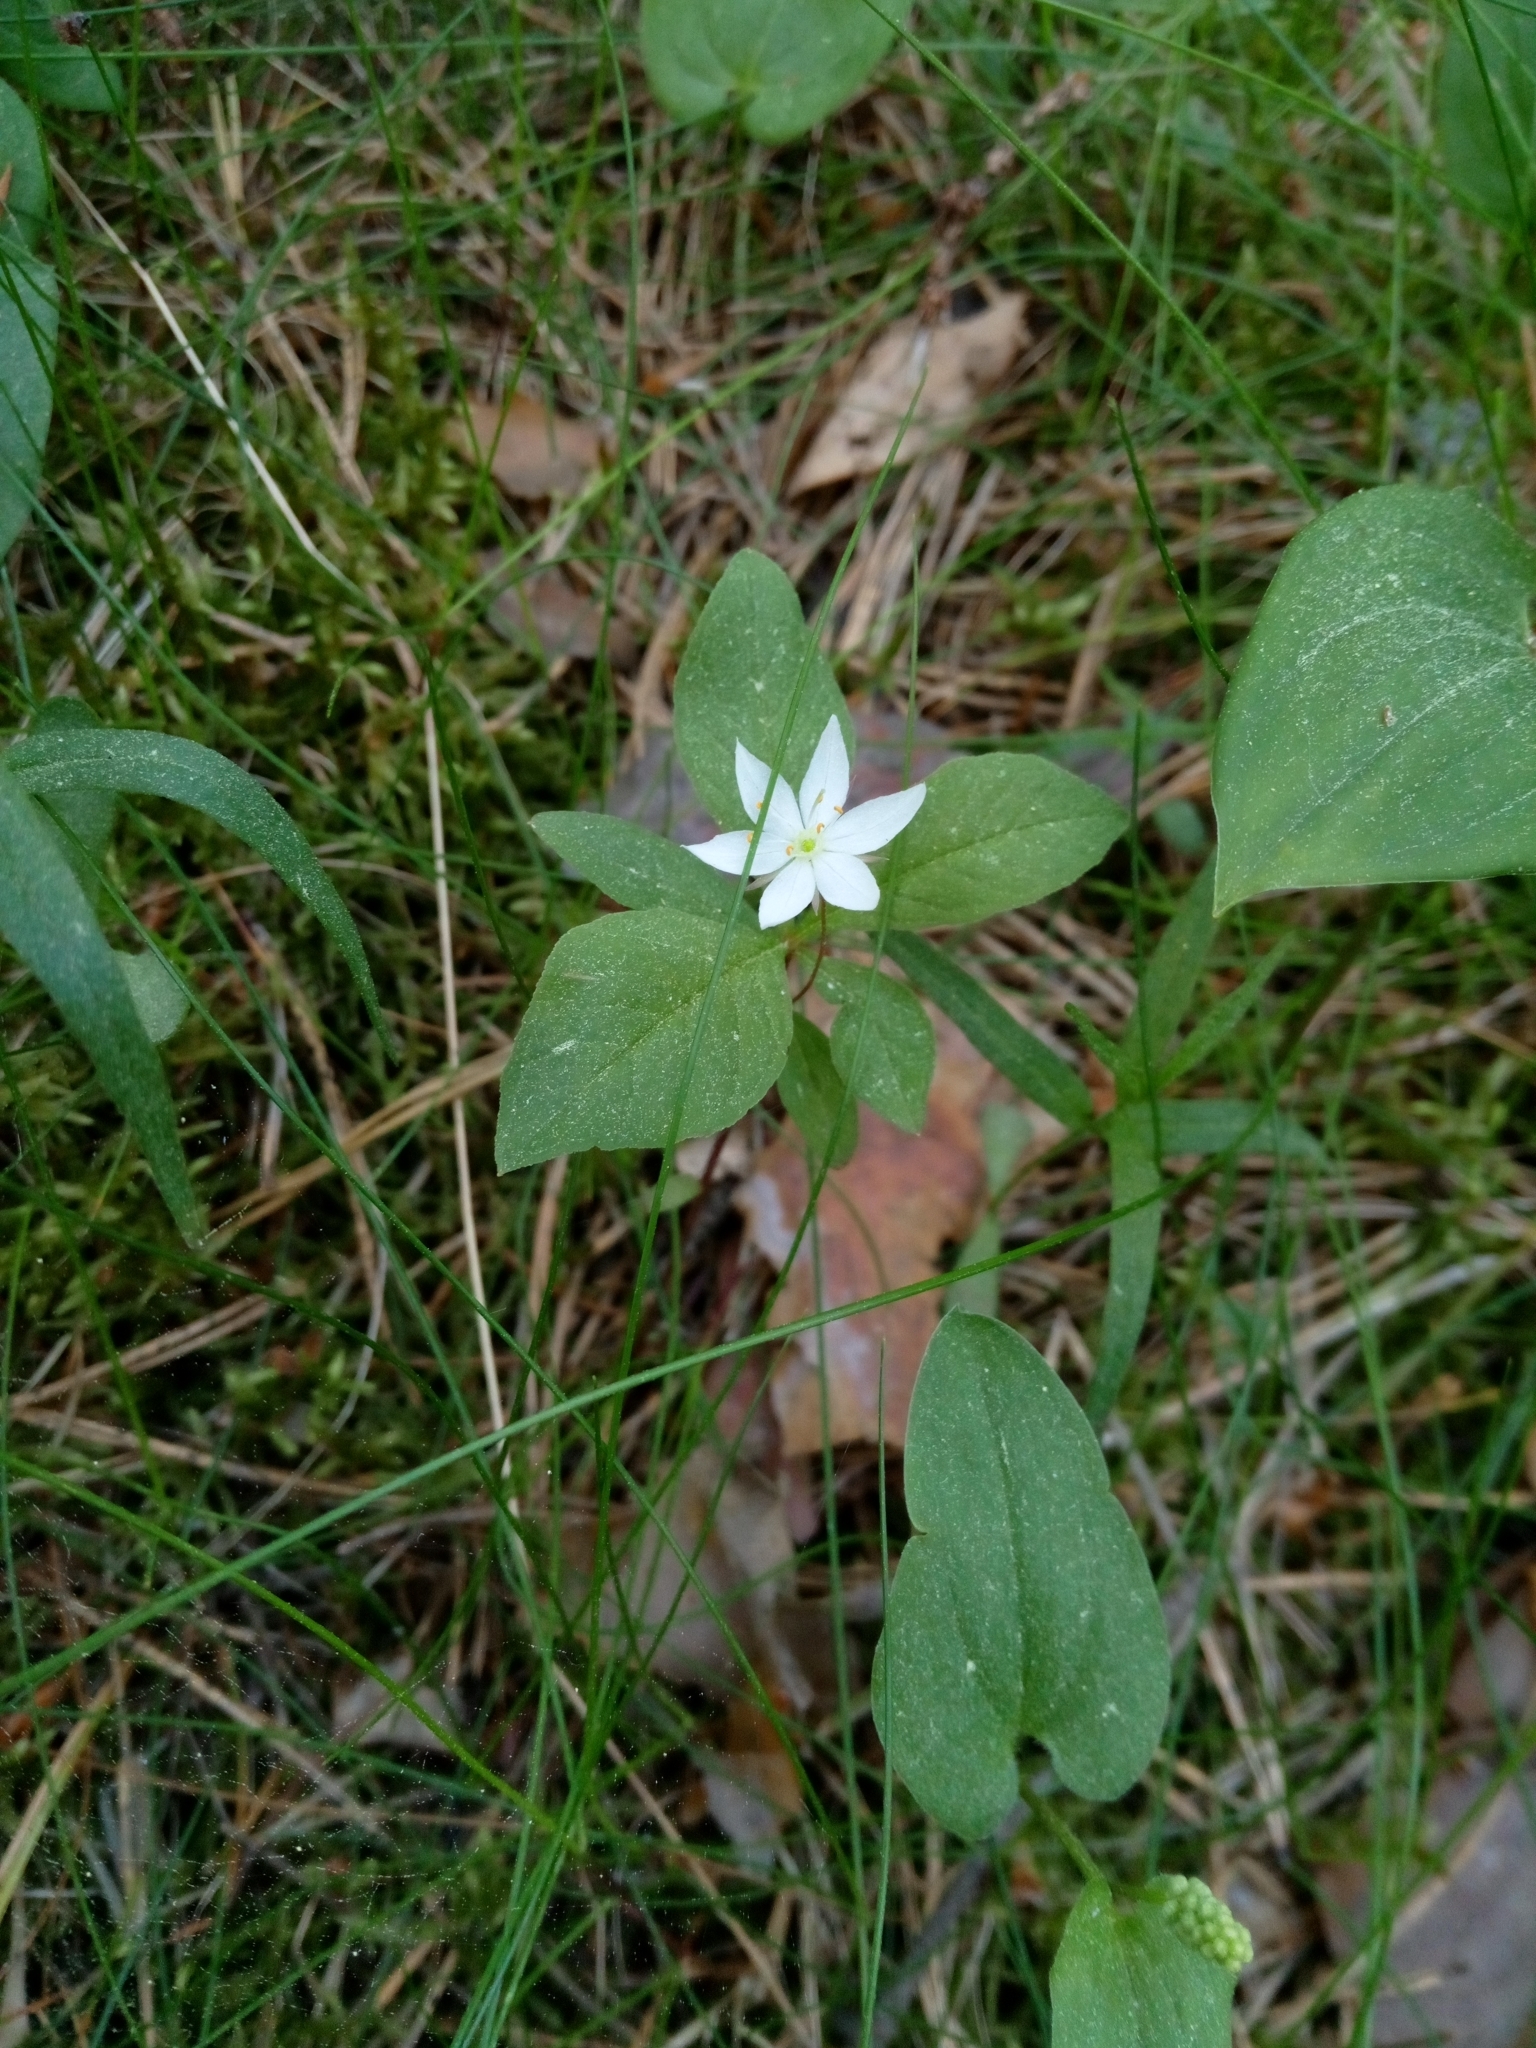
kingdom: Plantae
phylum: Tracheophyta
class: Magnoliopsida
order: Ericales
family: Primulaceae
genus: Lysimachia
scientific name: Lysimachia europaea
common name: Arctic starflower
